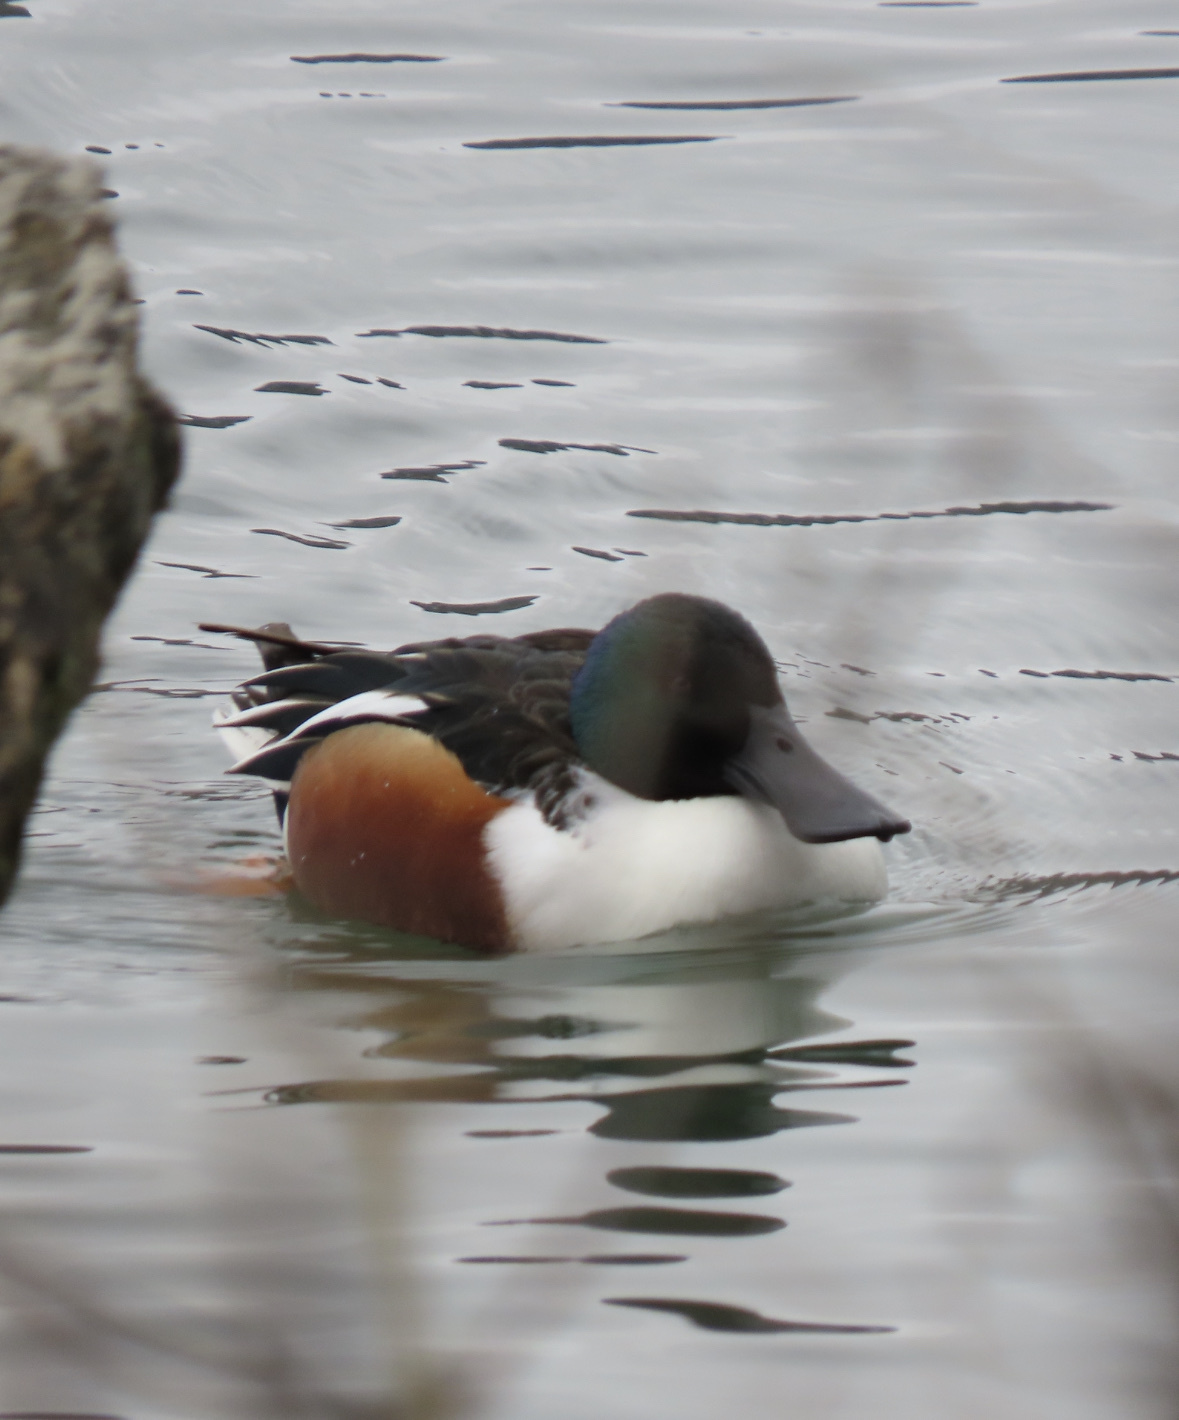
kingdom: Animalia
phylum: Chordata
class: Aves
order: Anseriformes
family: Anatidae
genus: Spatula
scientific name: Spatula clypeata
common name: Northern shoveler
